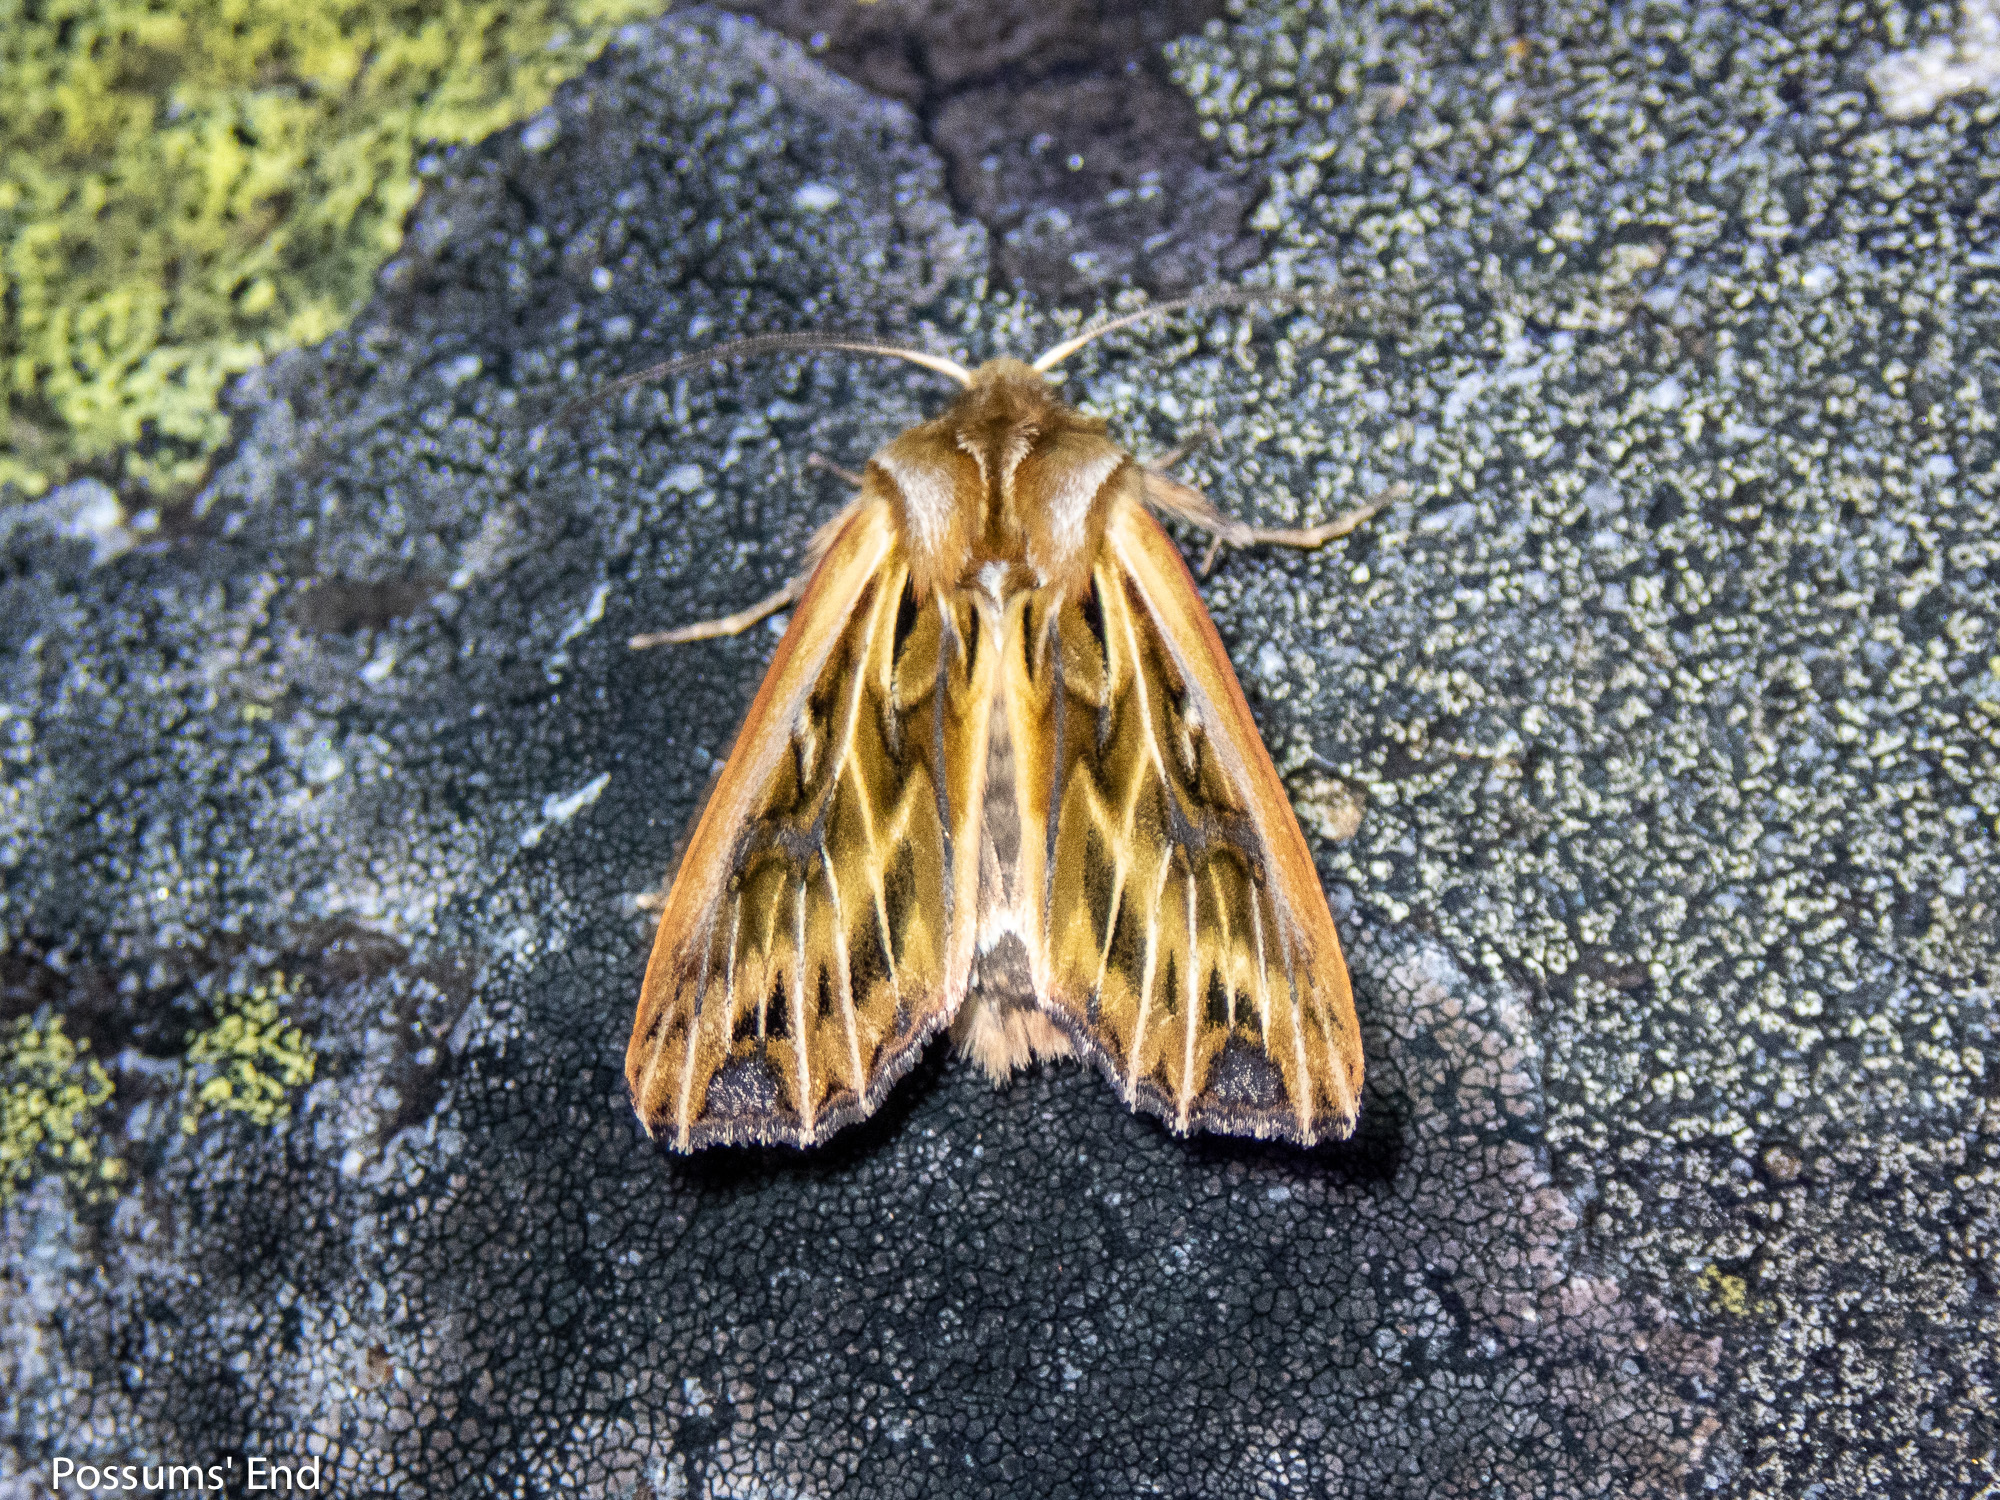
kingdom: Animalia
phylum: Arthropoda
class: Insecta
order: Lepidoptera
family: Noctuidae
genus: Ichneutica
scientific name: Ichneutica
